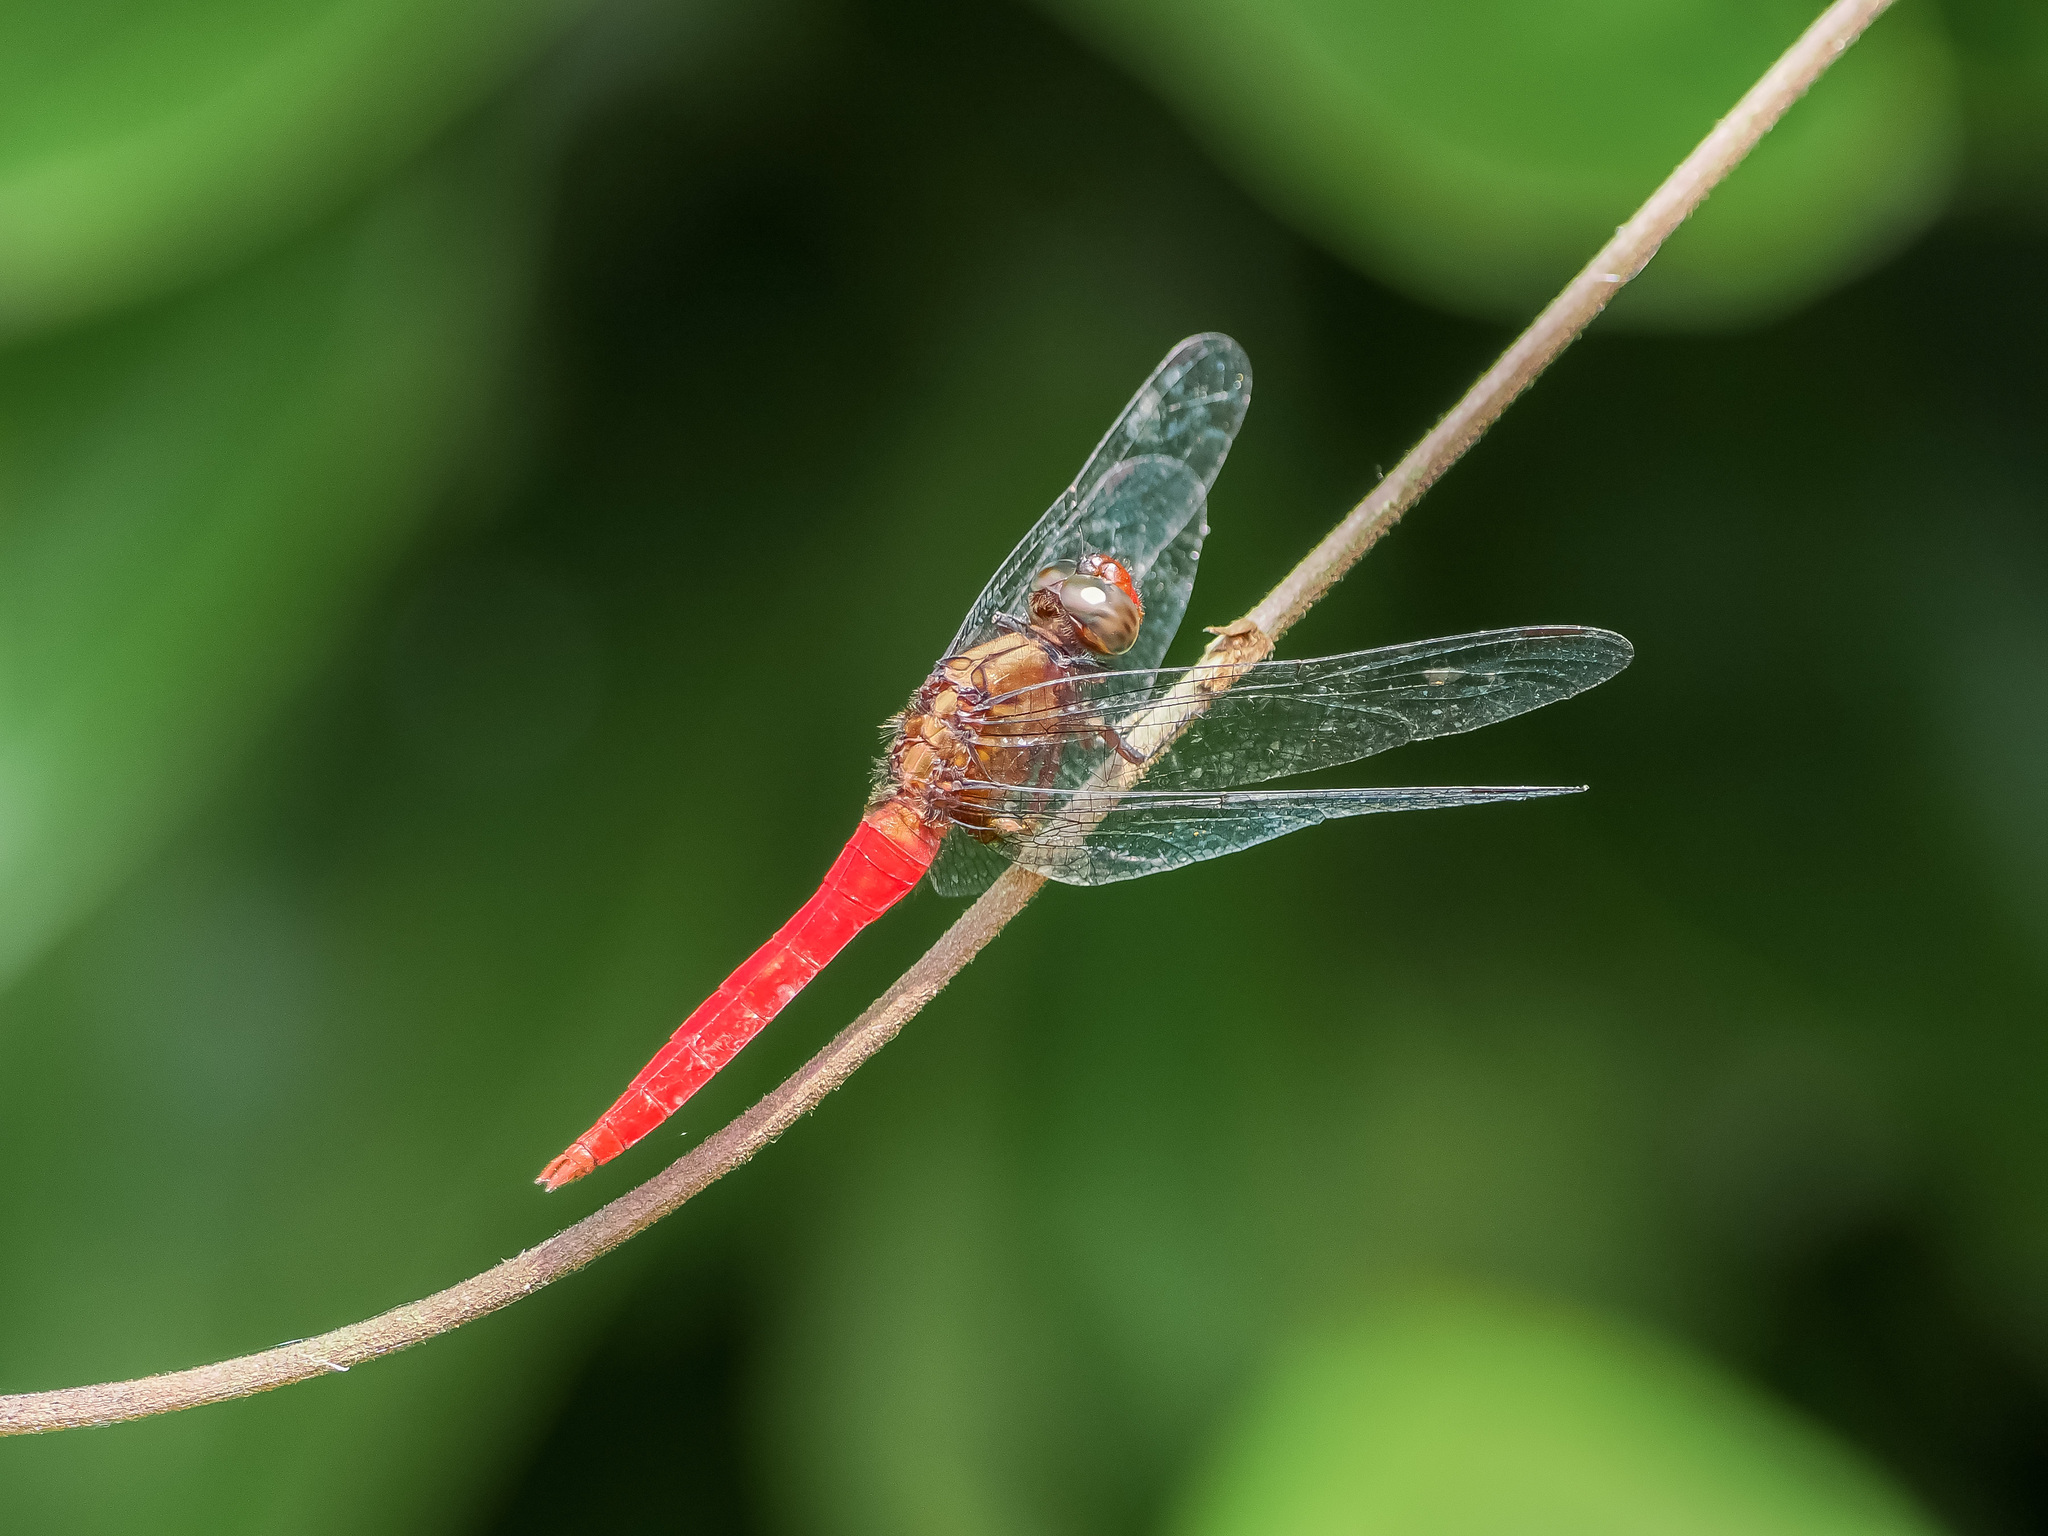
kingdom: Animalia
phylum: Arthropoda
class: Insecta
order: Odonata
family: Libellulidae
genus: Orthetrum
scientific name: Orthetrum chrysis
